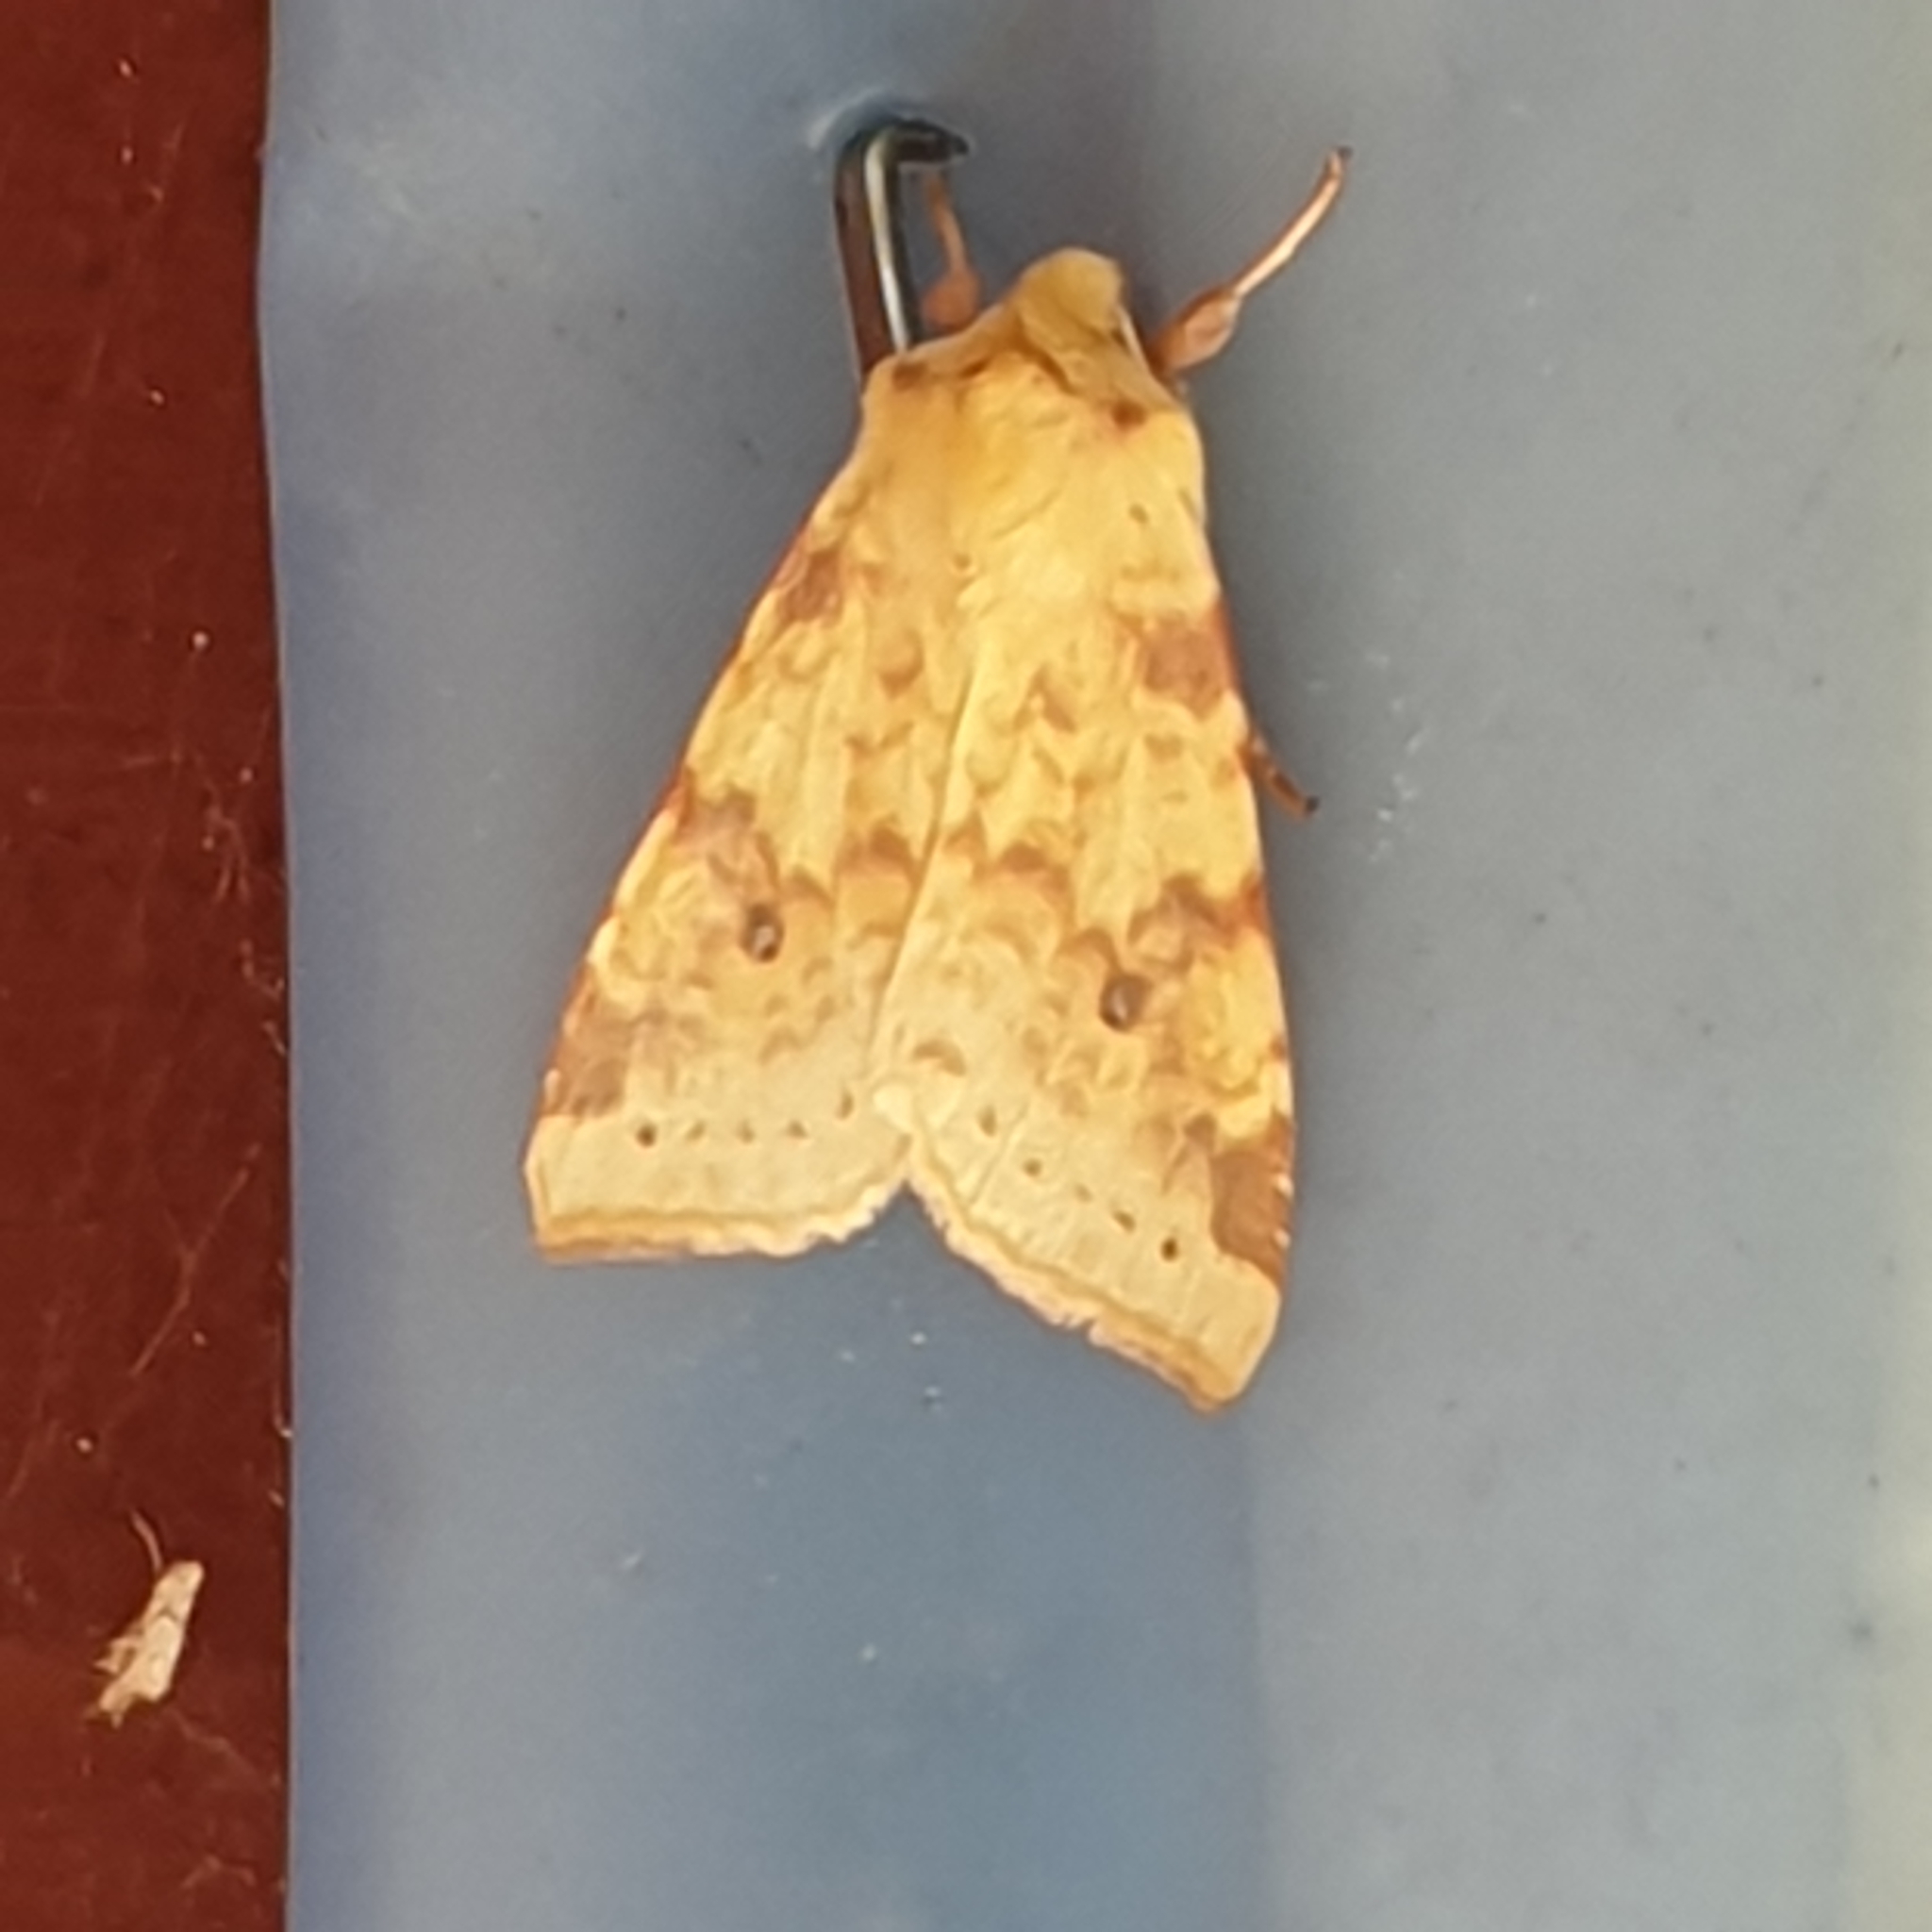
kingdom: Animalia
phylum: Arthropoda
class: Insecta
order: Lepidoptera
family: Noctuidae
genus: Xanthia
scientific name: Xanthia icteritia
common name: The sallow
